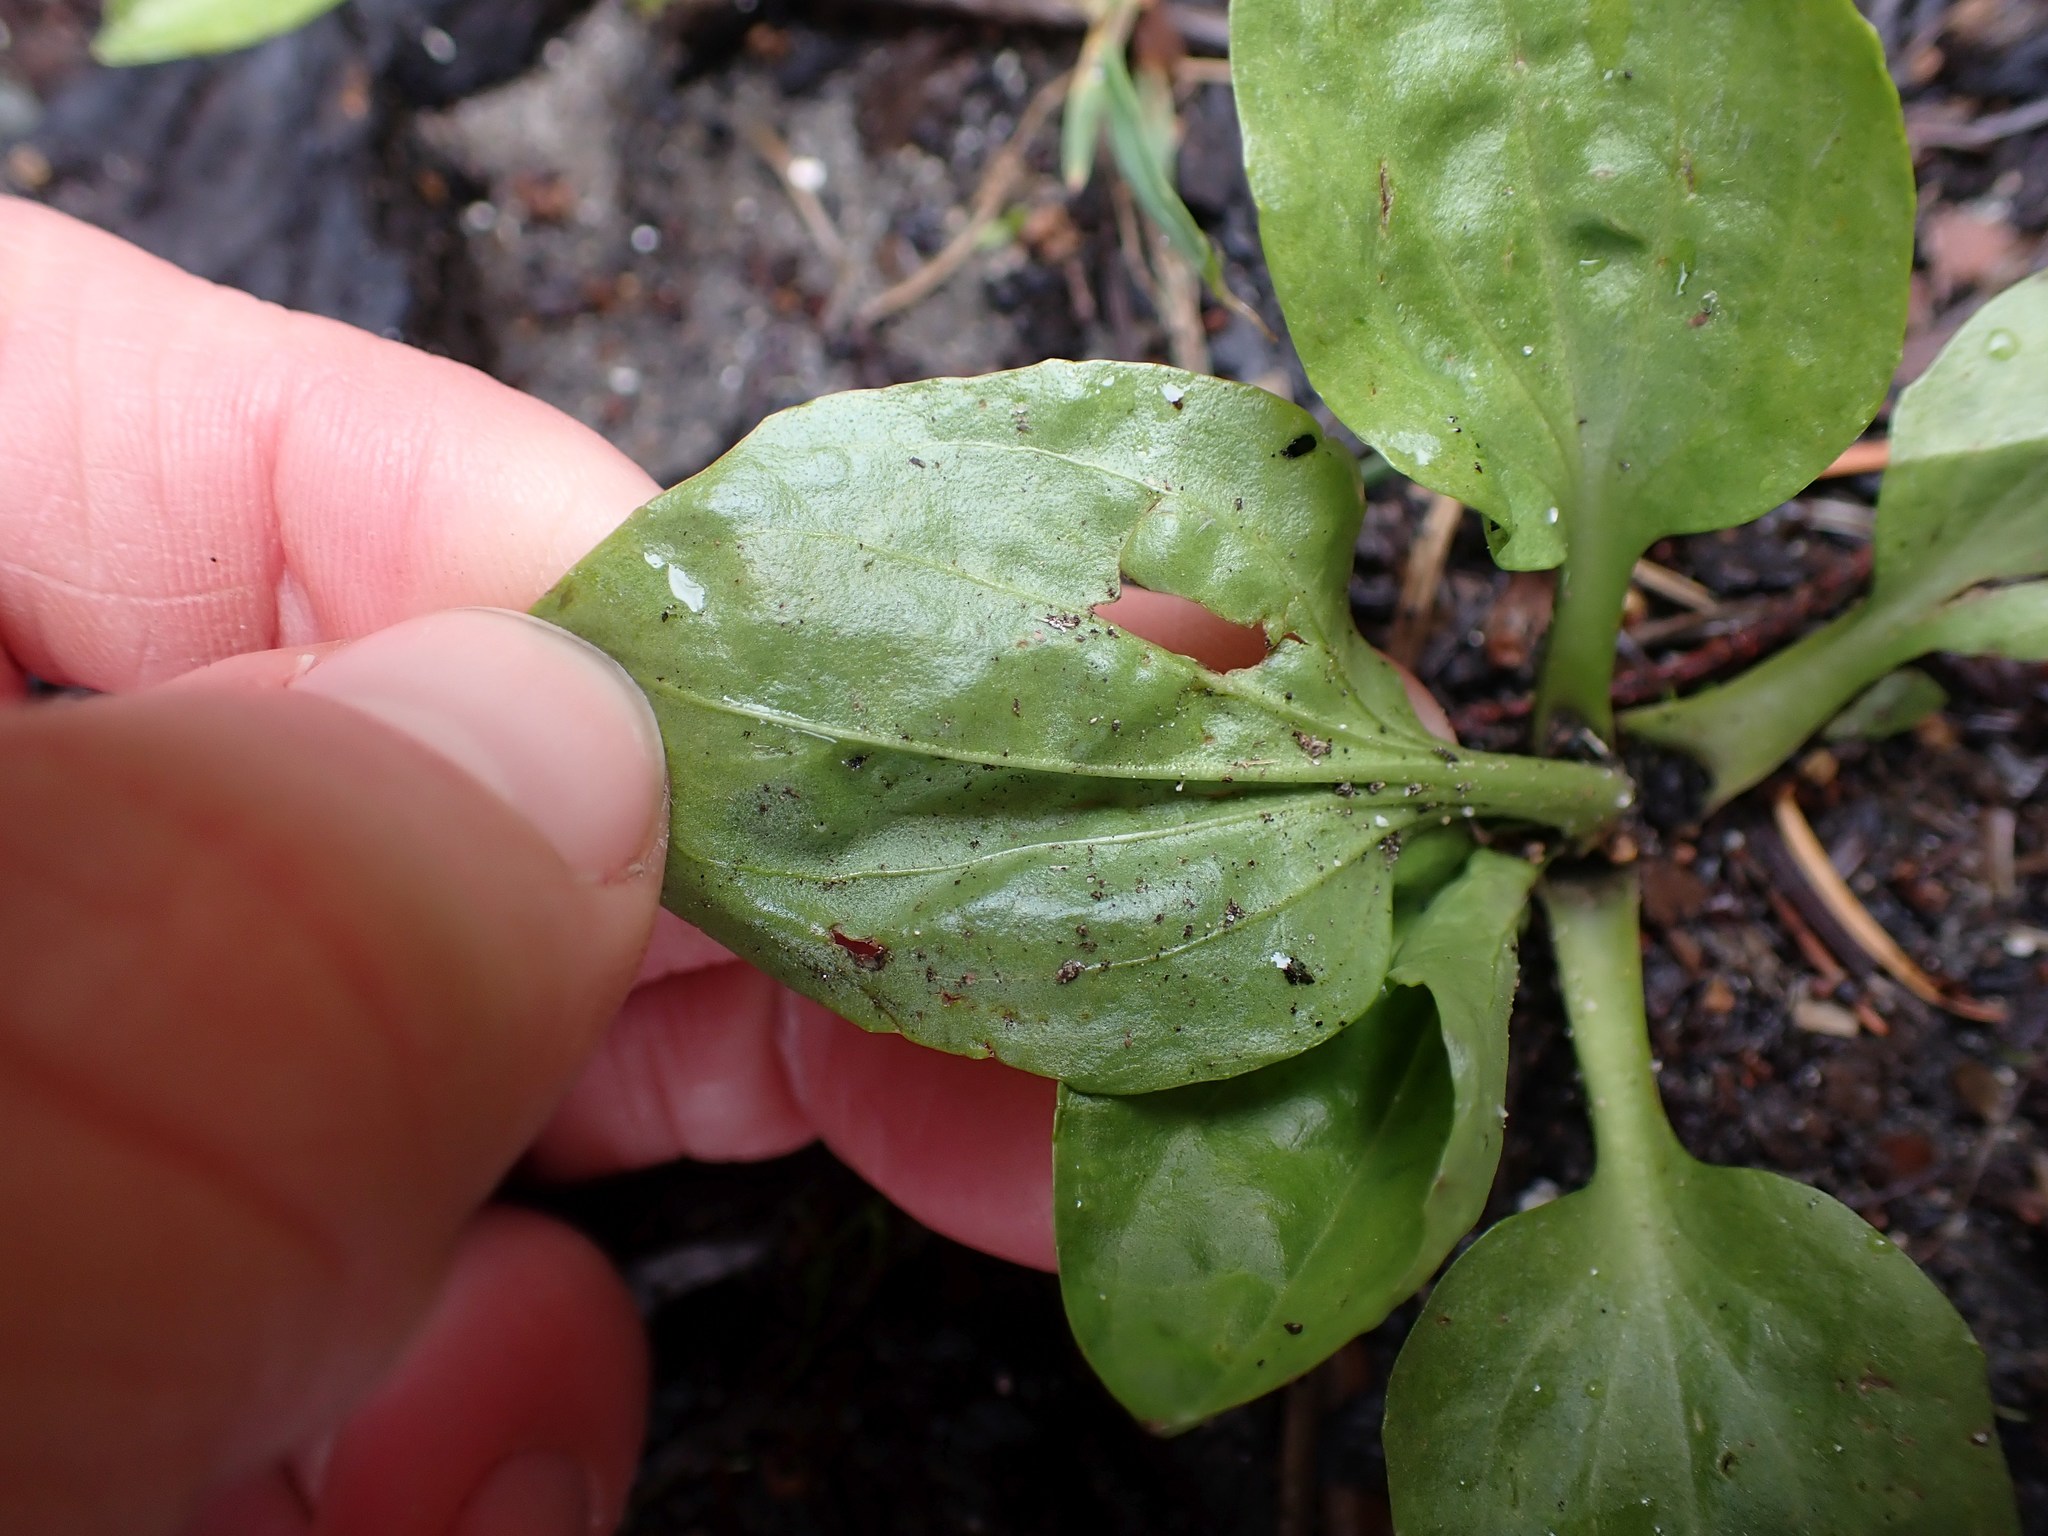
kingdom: Plantae
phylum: Tracheophyta
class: Magnoliopsida
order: Lamiales
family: Plantaginaceae
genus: Plantago
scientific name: Plantago major
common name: Common plantain
